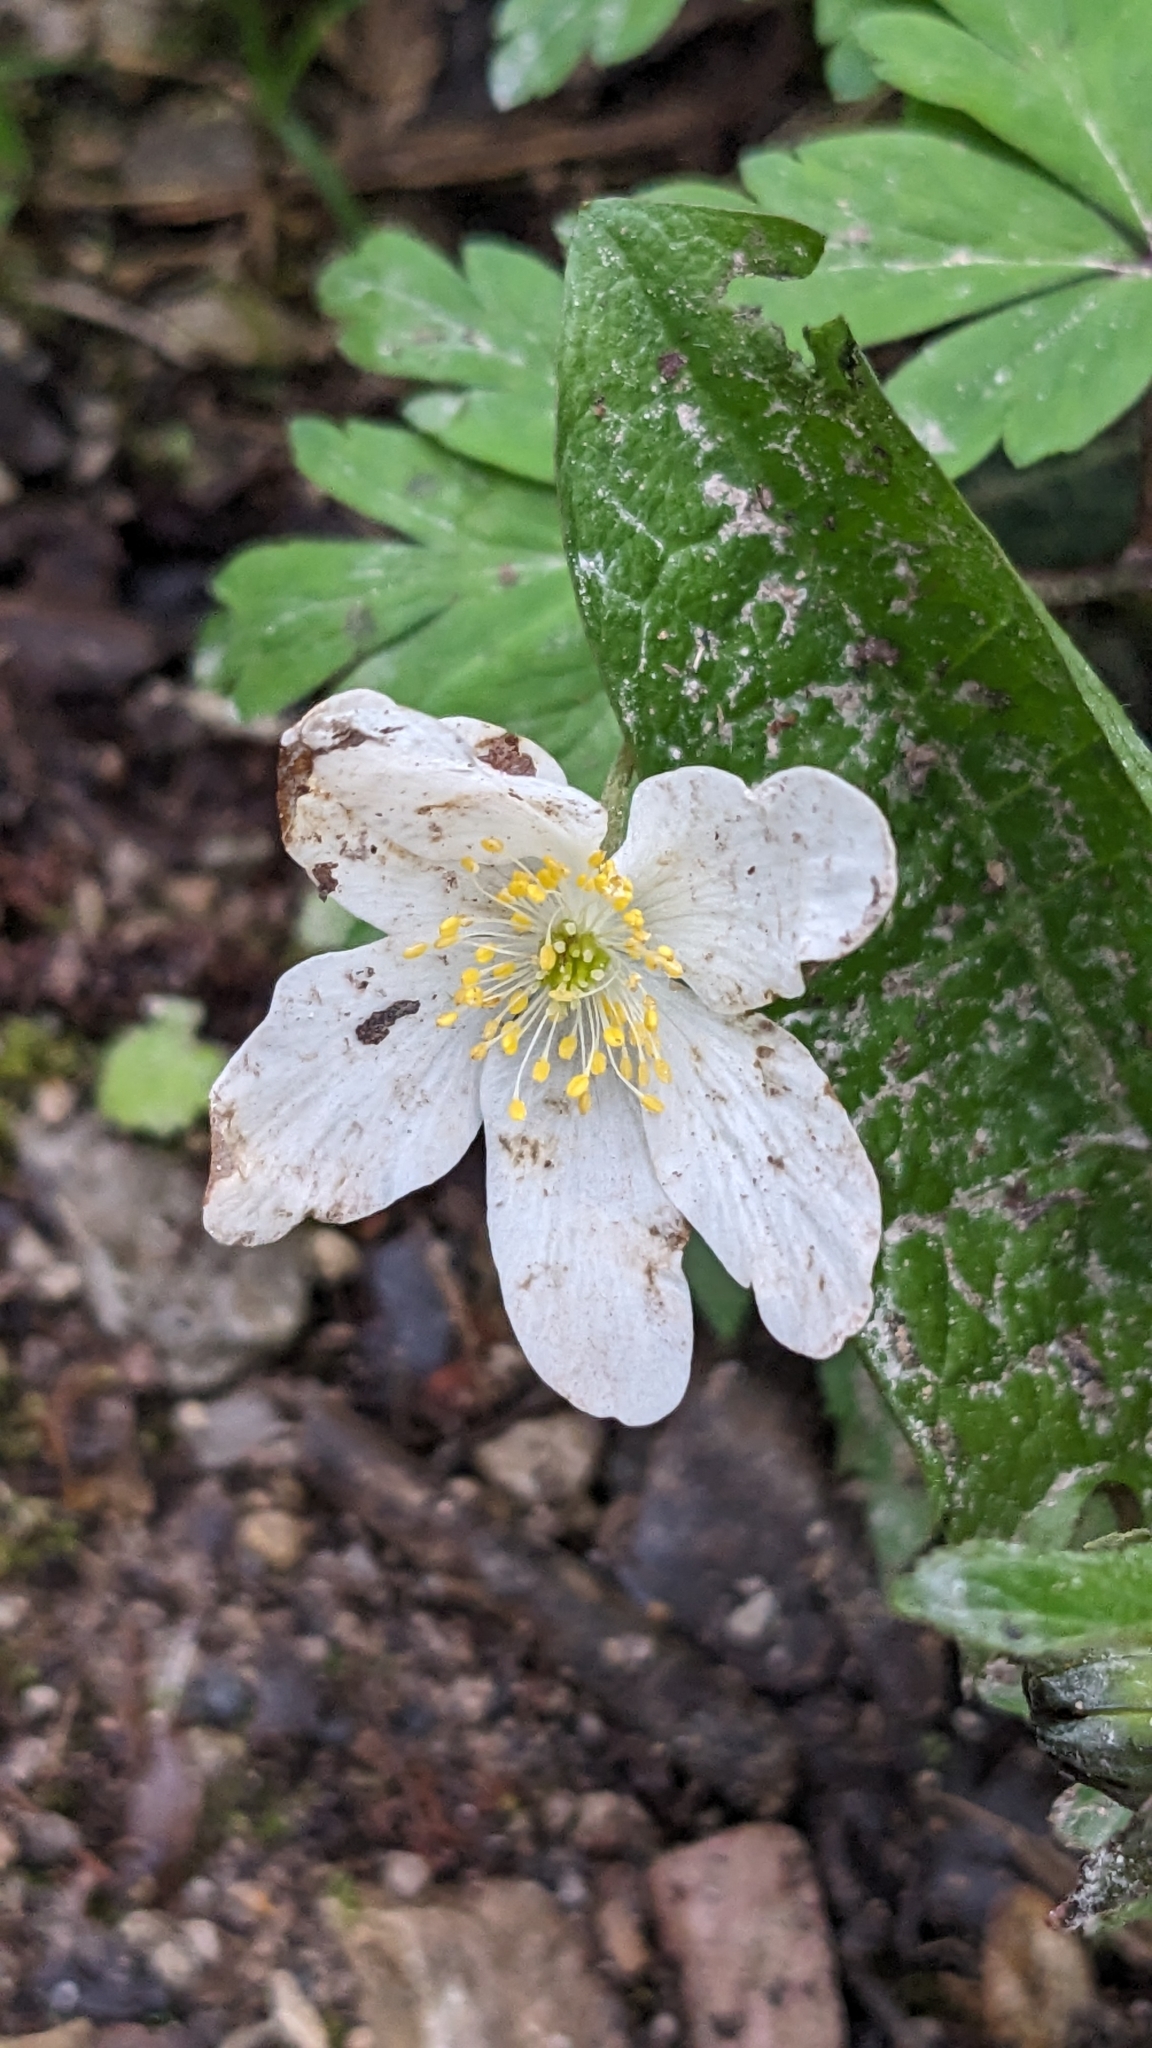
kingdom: Plantae
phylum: Tracheophyta
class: Magnoliopsida
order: Ranunculales
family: Ranunculaceae
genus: Anemone
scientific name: Anemone nemorosa
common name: Wood anemone
